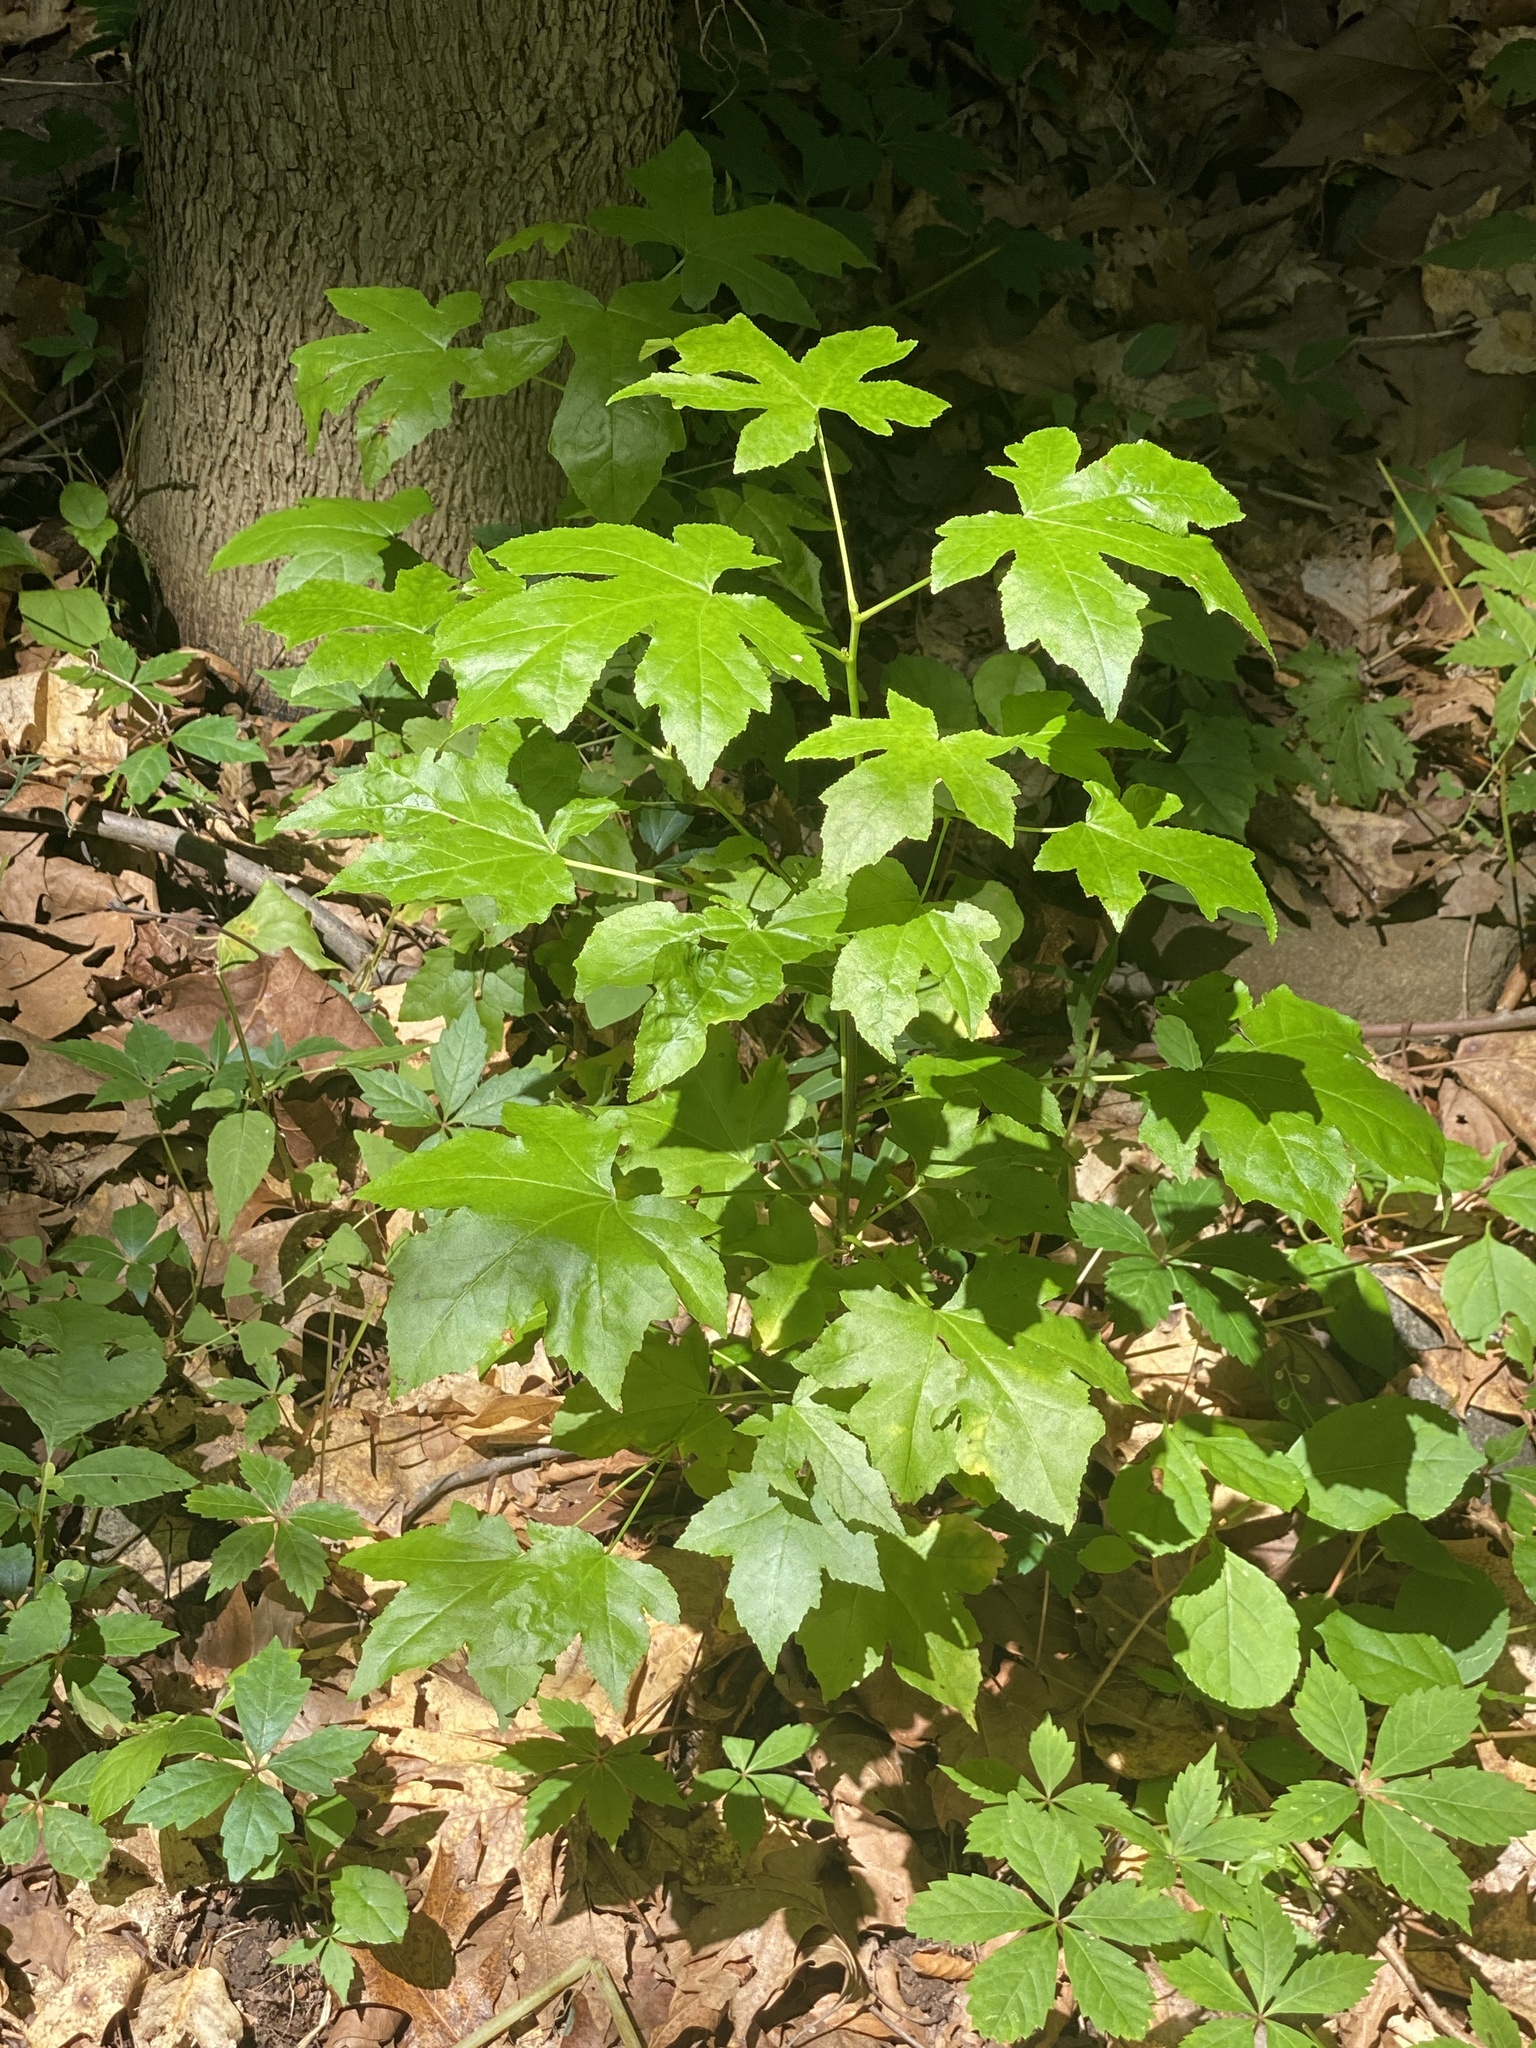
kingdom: Plantae
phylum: Tracheophyta
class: Magnoliopsida
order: Saxifragales
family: Altingiaceae
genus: Liquidambar
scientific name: Liquidambar styraciflua
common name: Sweet gum
